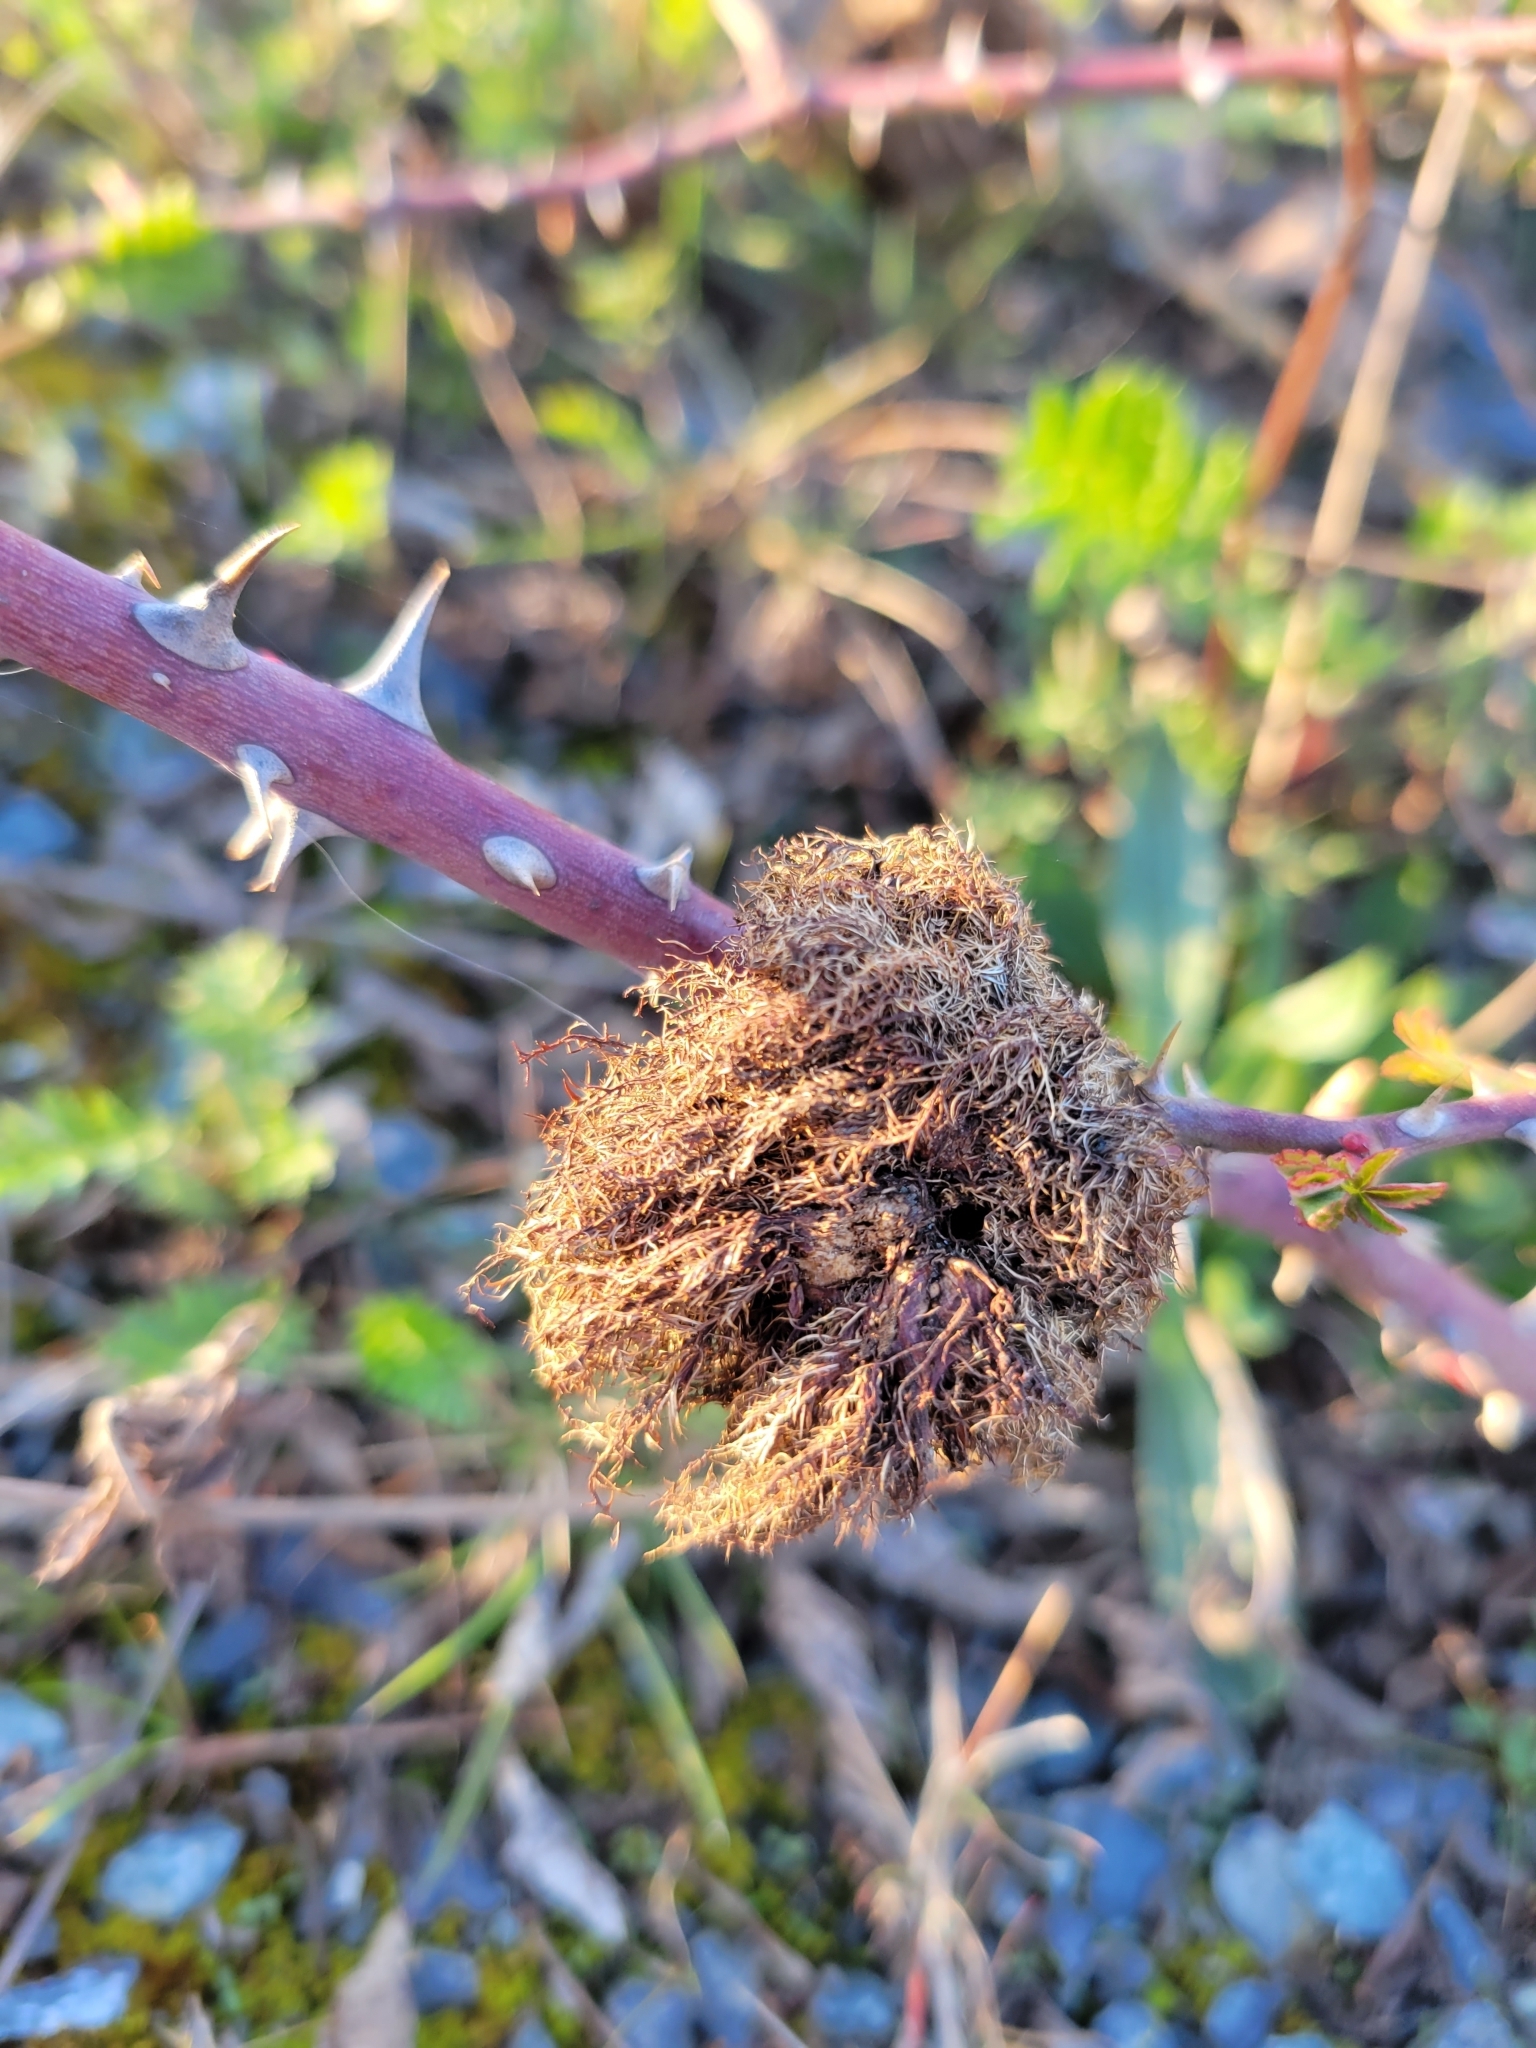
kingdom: Animalia
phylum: Arthropoda
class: Insecta
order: Hymenoptera
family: Cynipidae
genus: Diplolepis
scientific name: Diplolepis rosae
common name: Bedeguar gall
